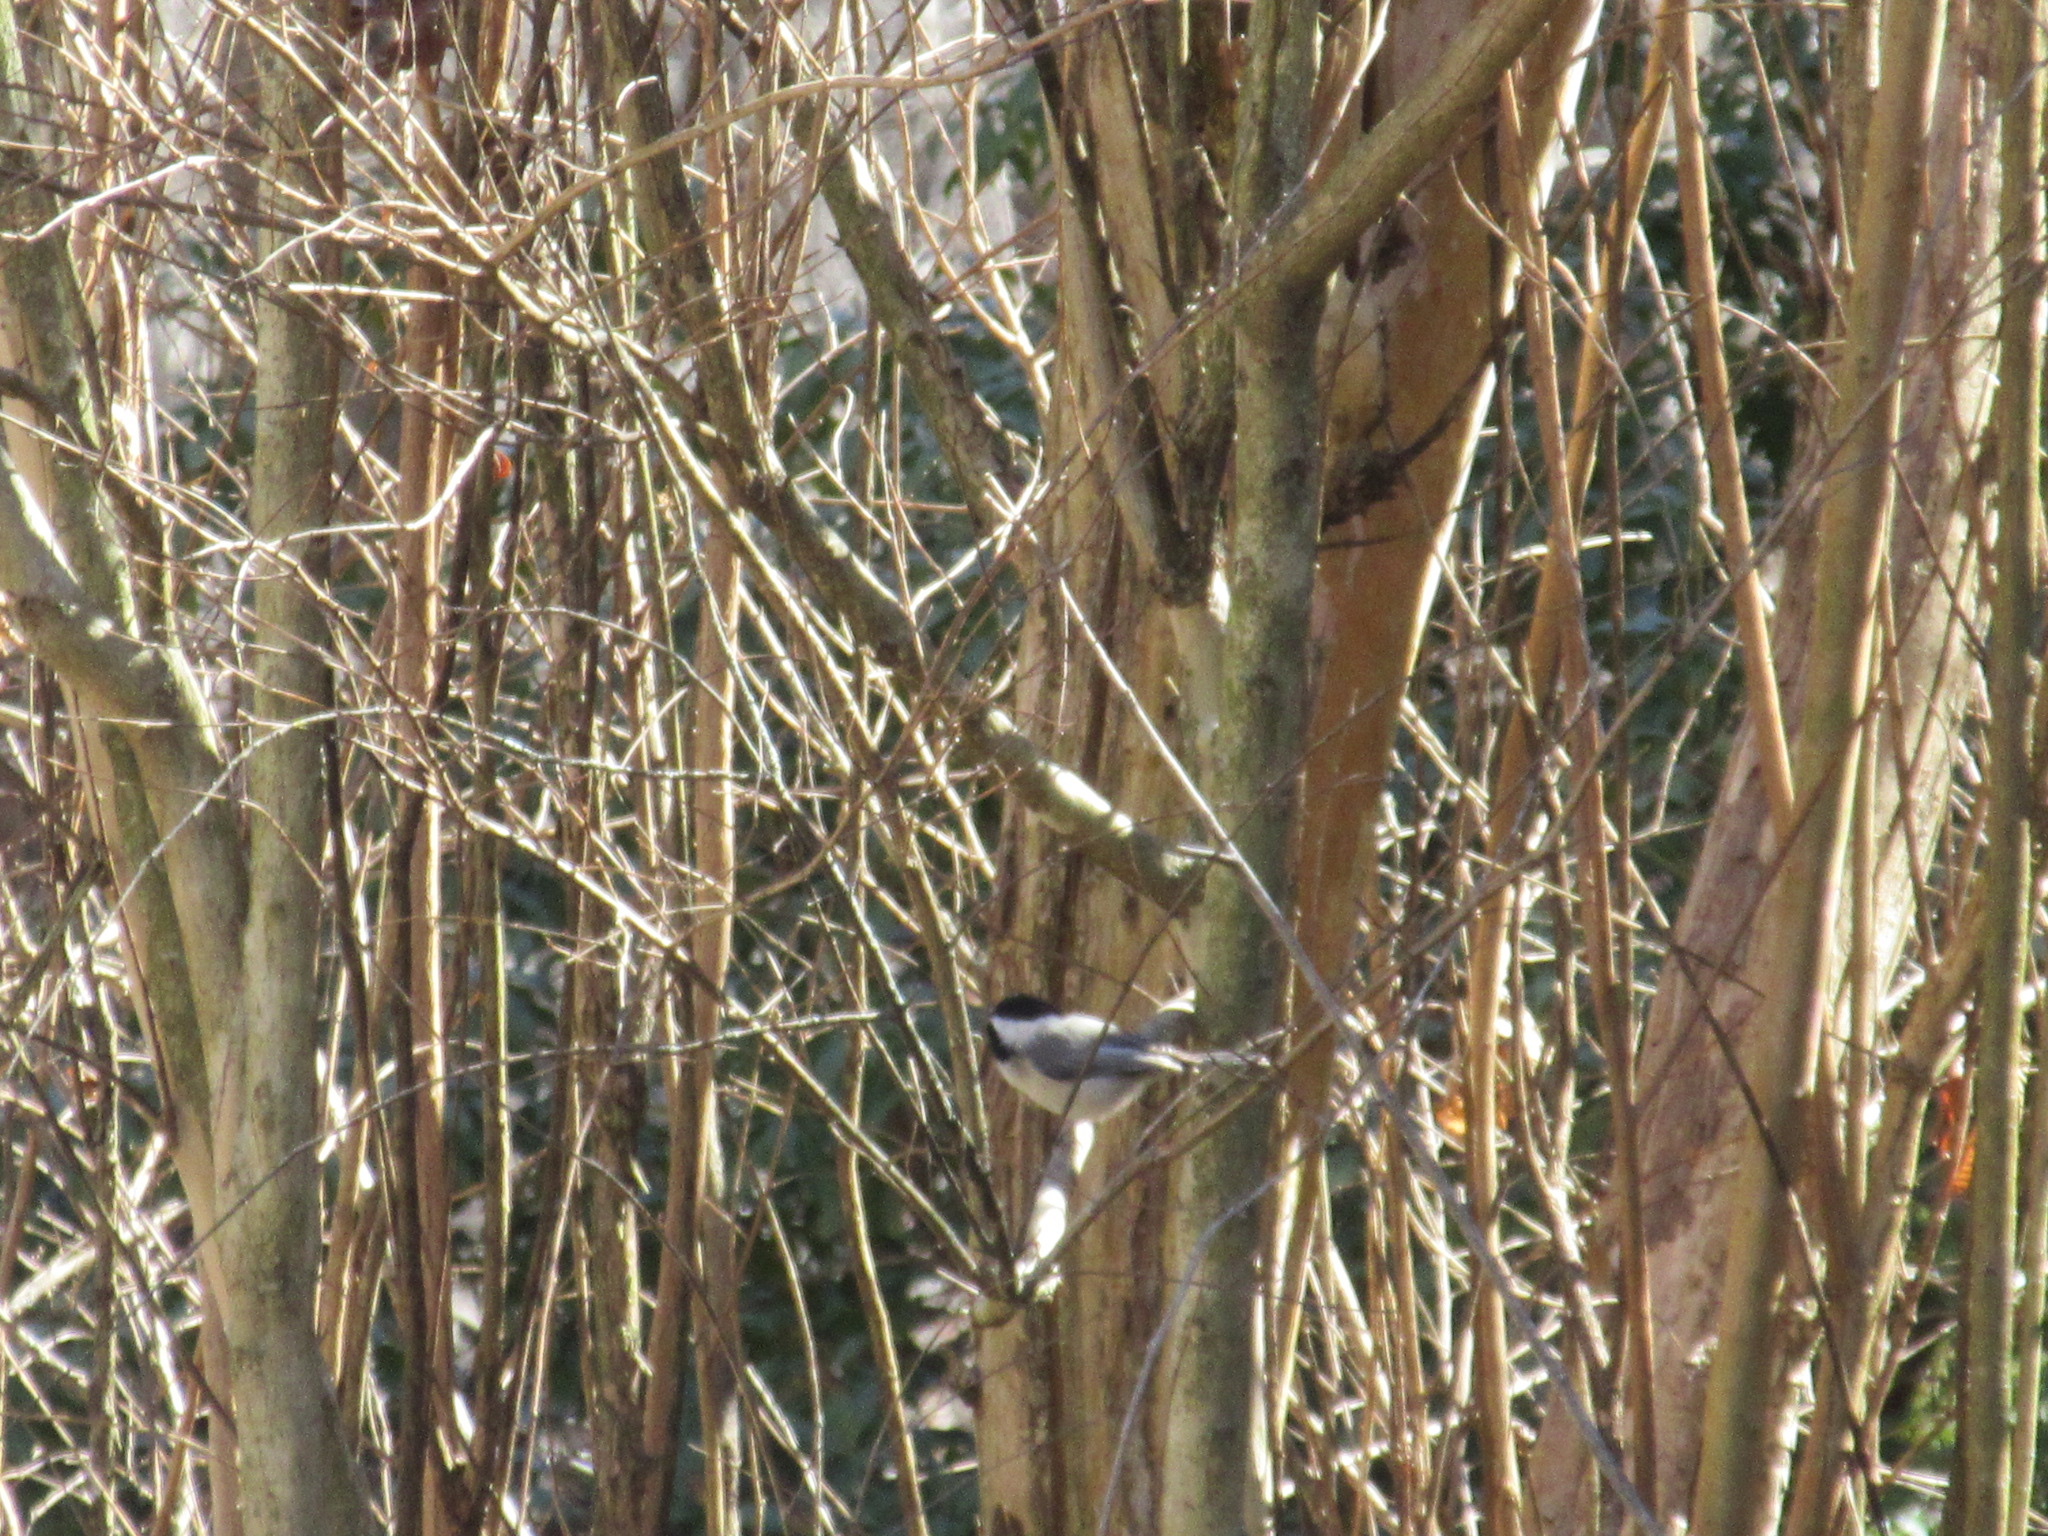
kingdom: Animalia
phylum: Chordata
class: Aves
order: Passeriformes
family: Paridae
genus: Poecile
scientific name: Poecile carolinensis
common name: Carolina chickadee
